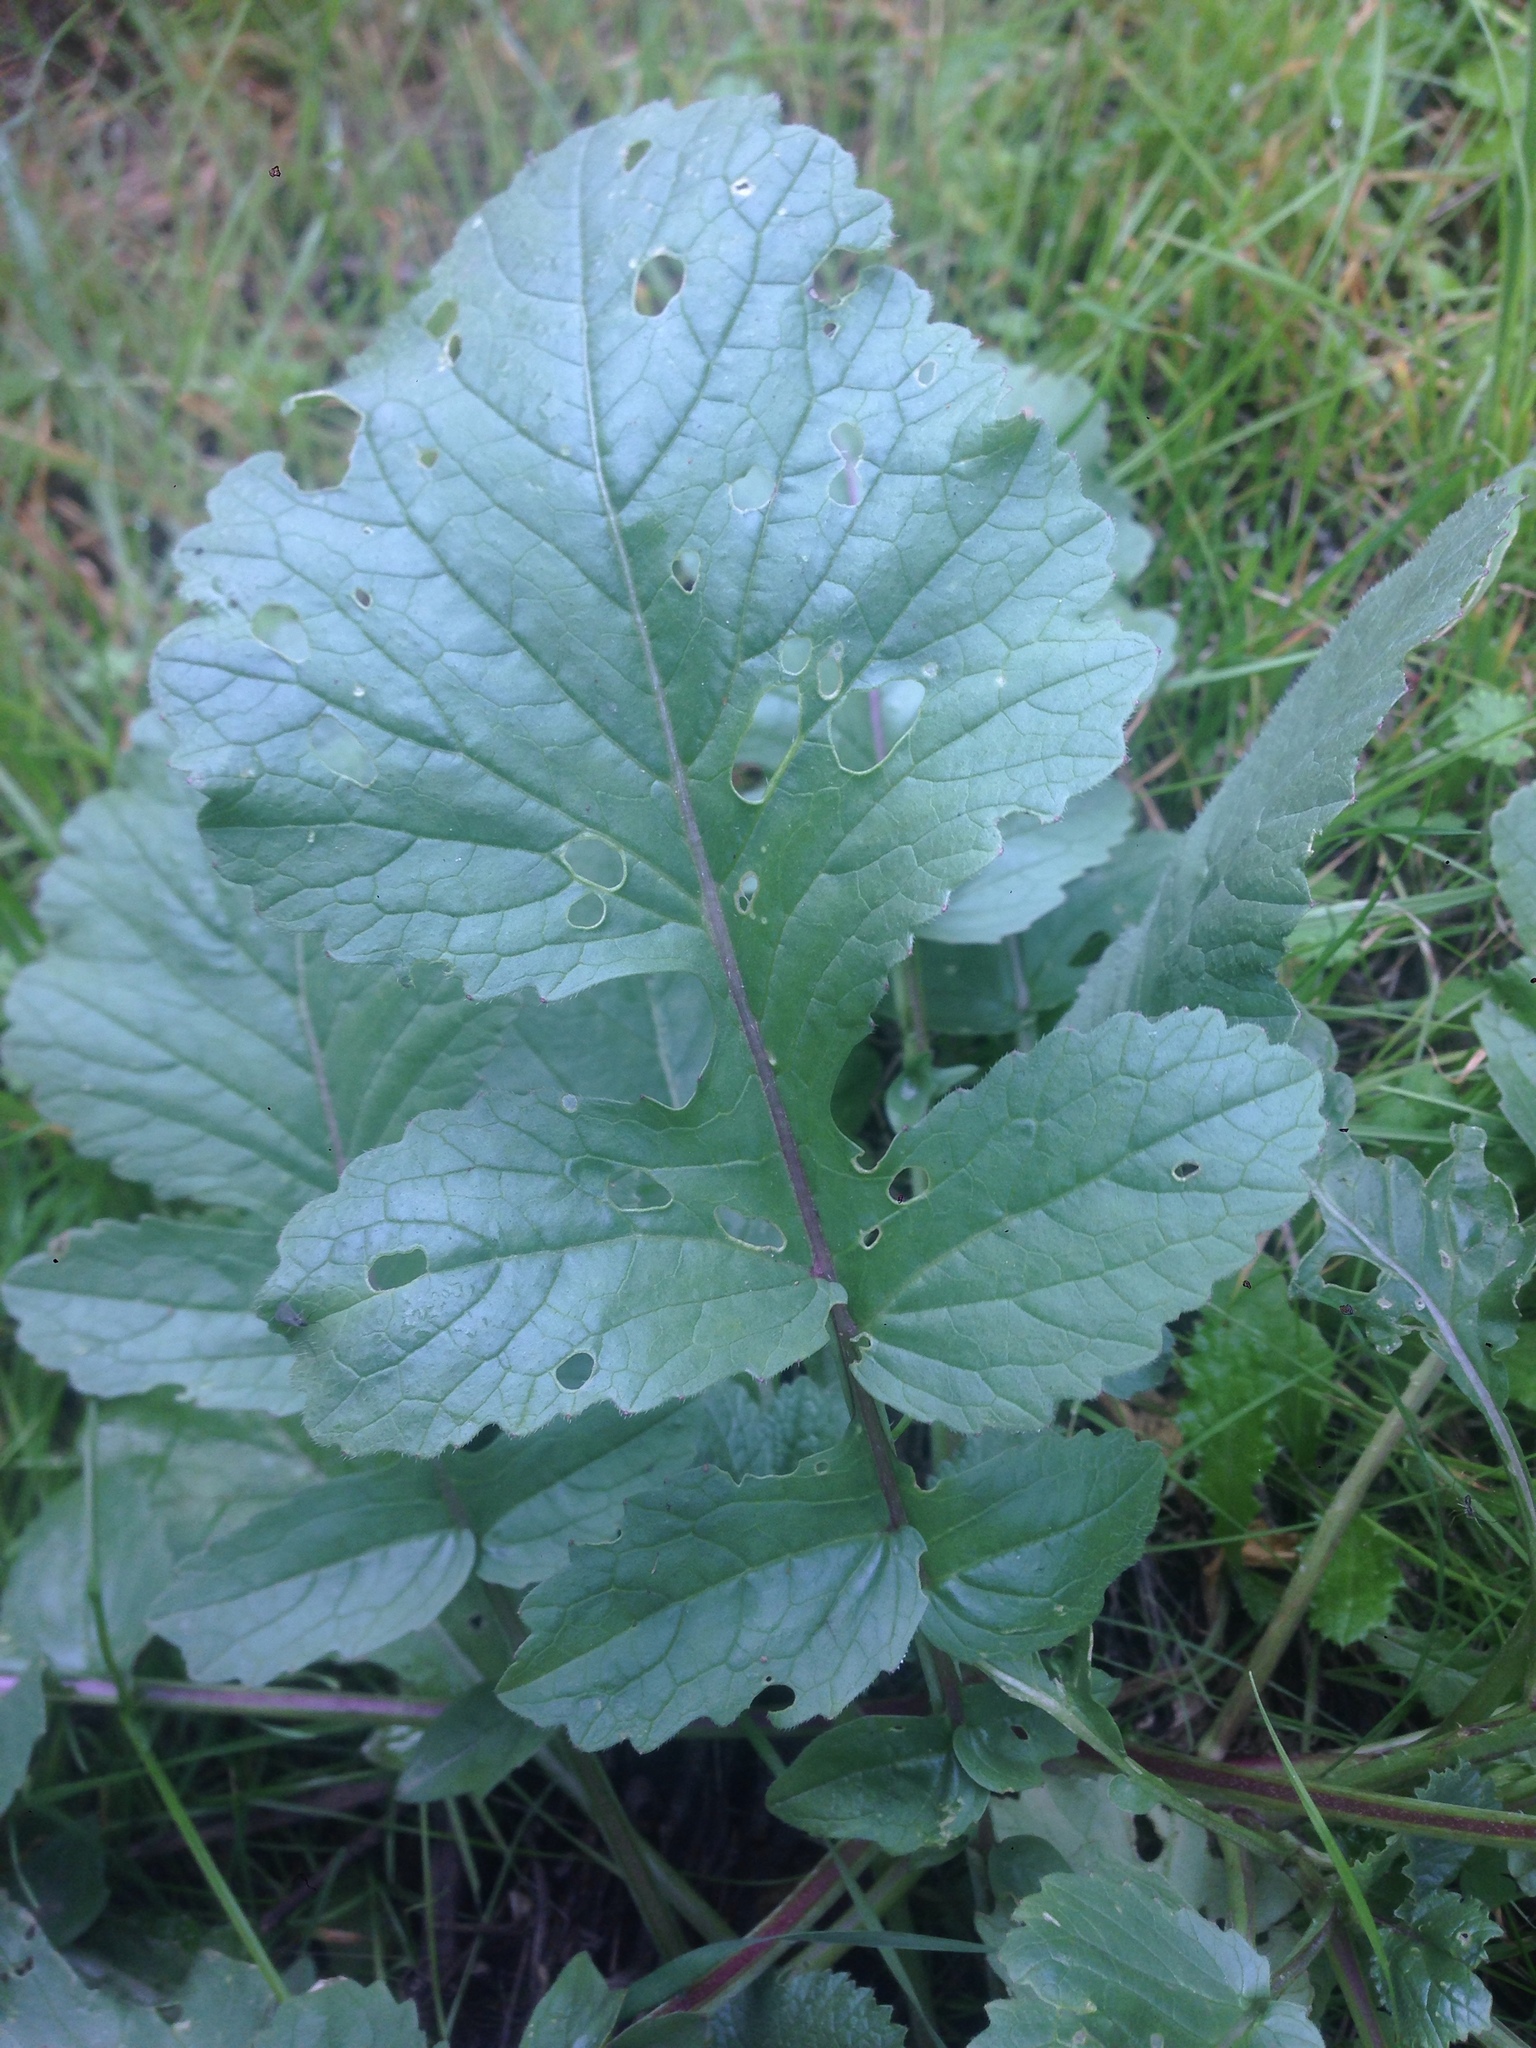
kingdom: Plantae
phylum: Tracheophyta
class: Magnoliopsida
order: Brassicales
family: Brassicaceae
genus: Raphanus
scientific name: Raphanus
